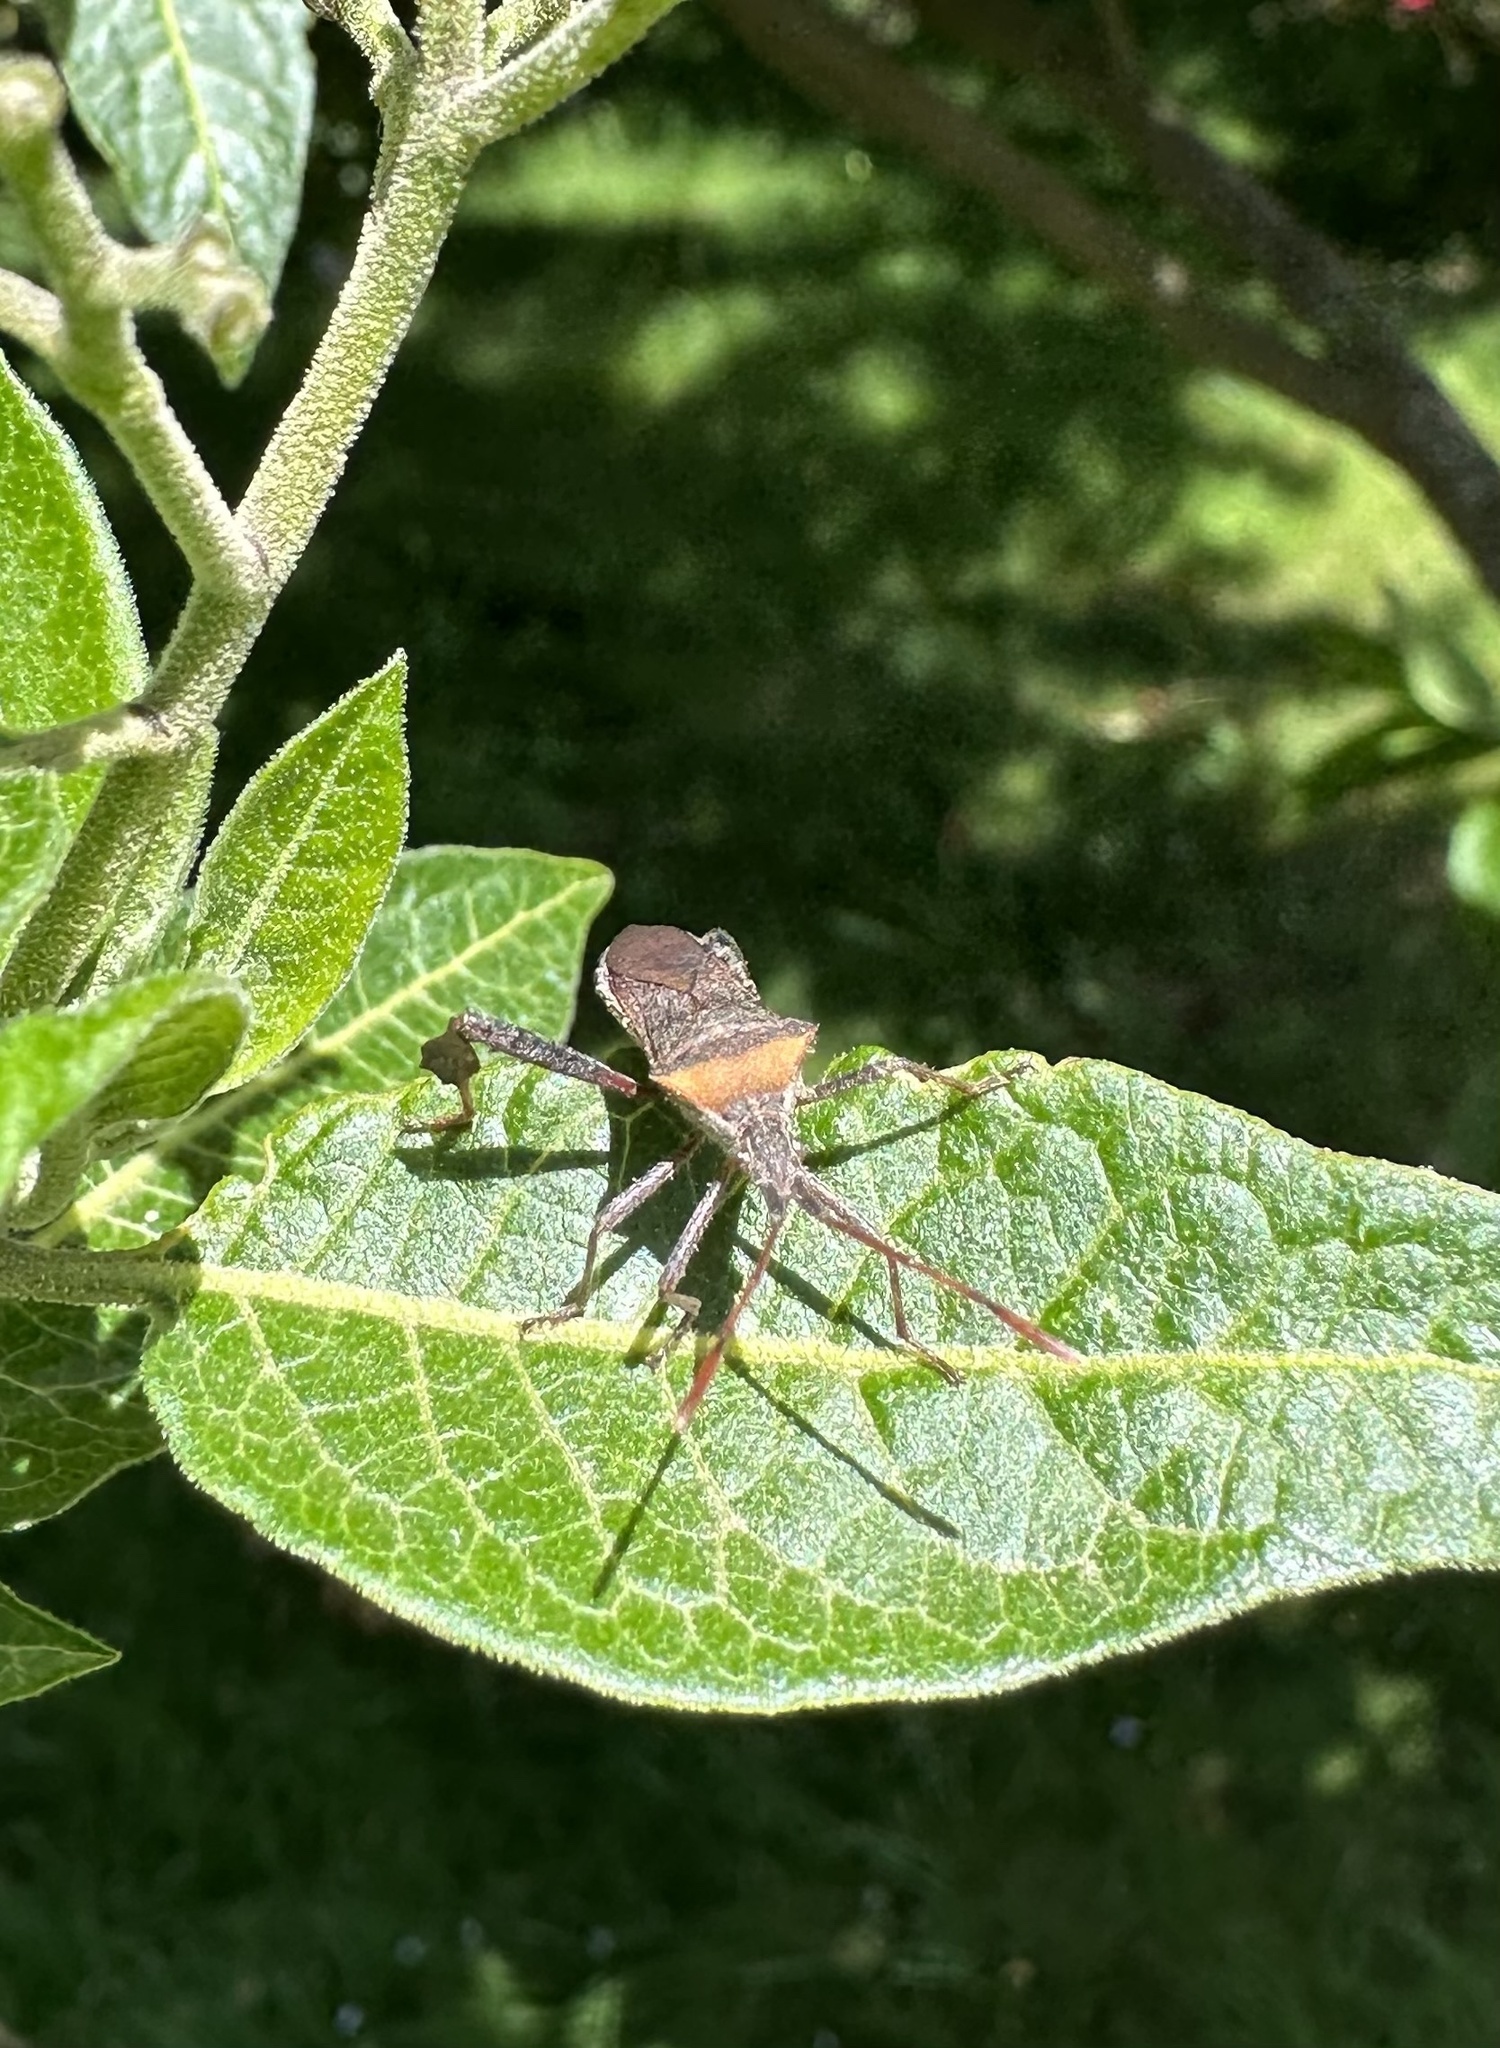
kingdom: Animalia
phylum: Arthropoda
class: Insecta
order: Hemiptera
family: Coreidae
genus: Leptoglossus
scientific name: Leptoglossus chilensis
